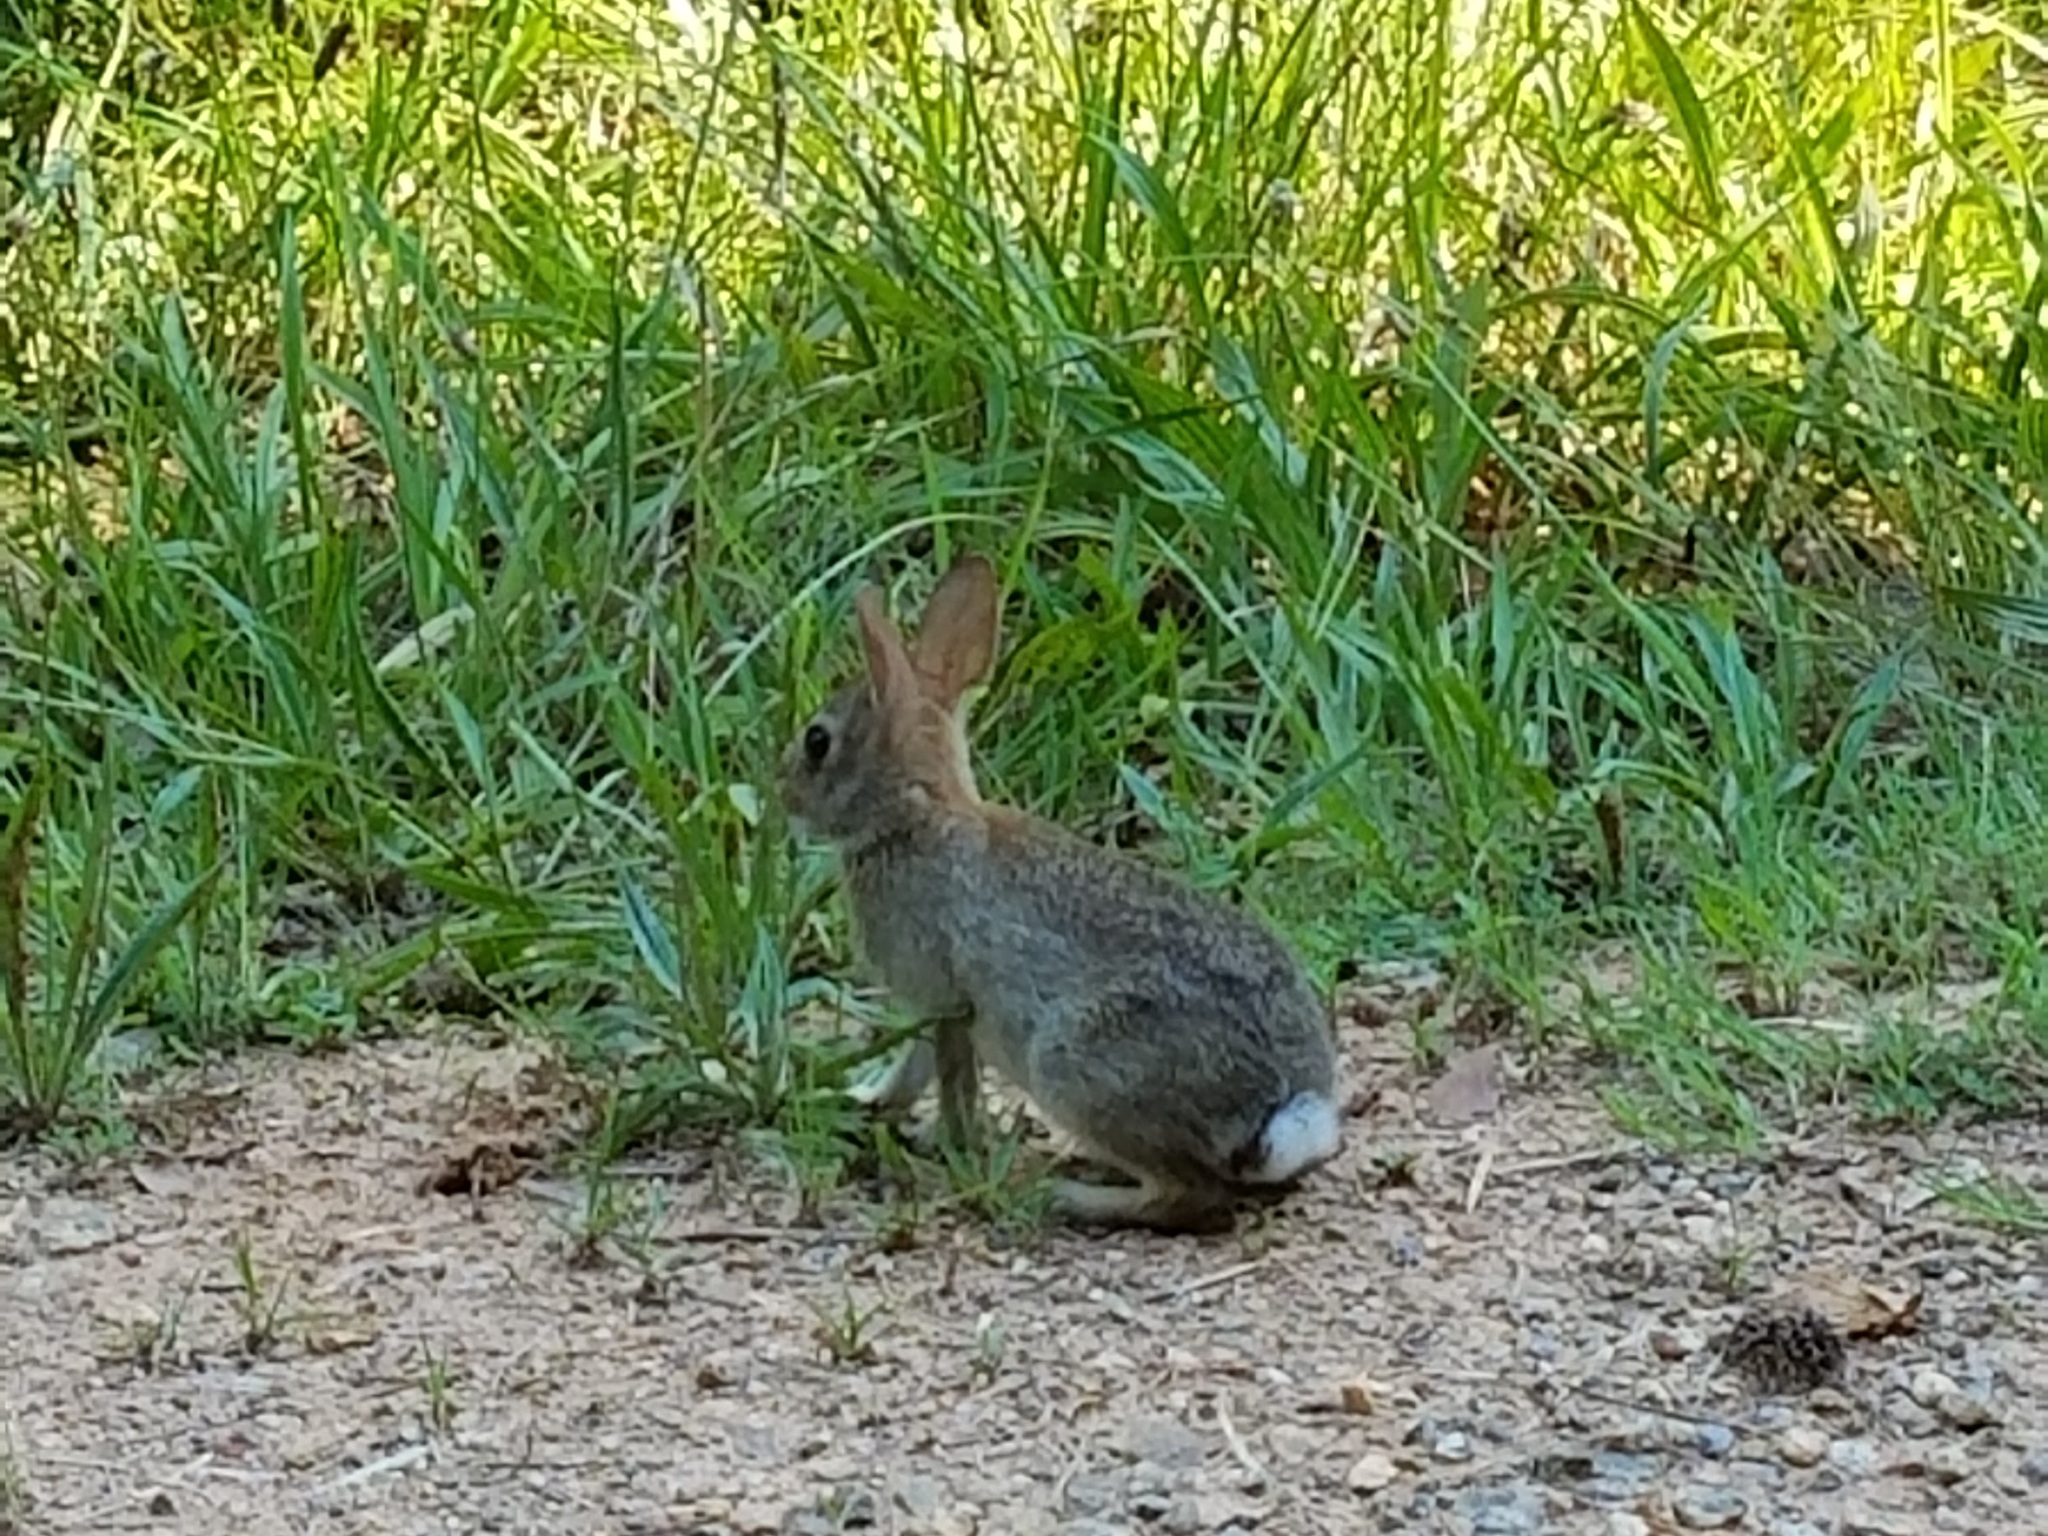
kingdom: Animalia
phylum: Chordata
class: Mammalia
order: Lagomorpha
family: Leporidae
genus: Sylvilagus
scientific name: Sylvilagus floridanus
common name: Eastern cottontail
